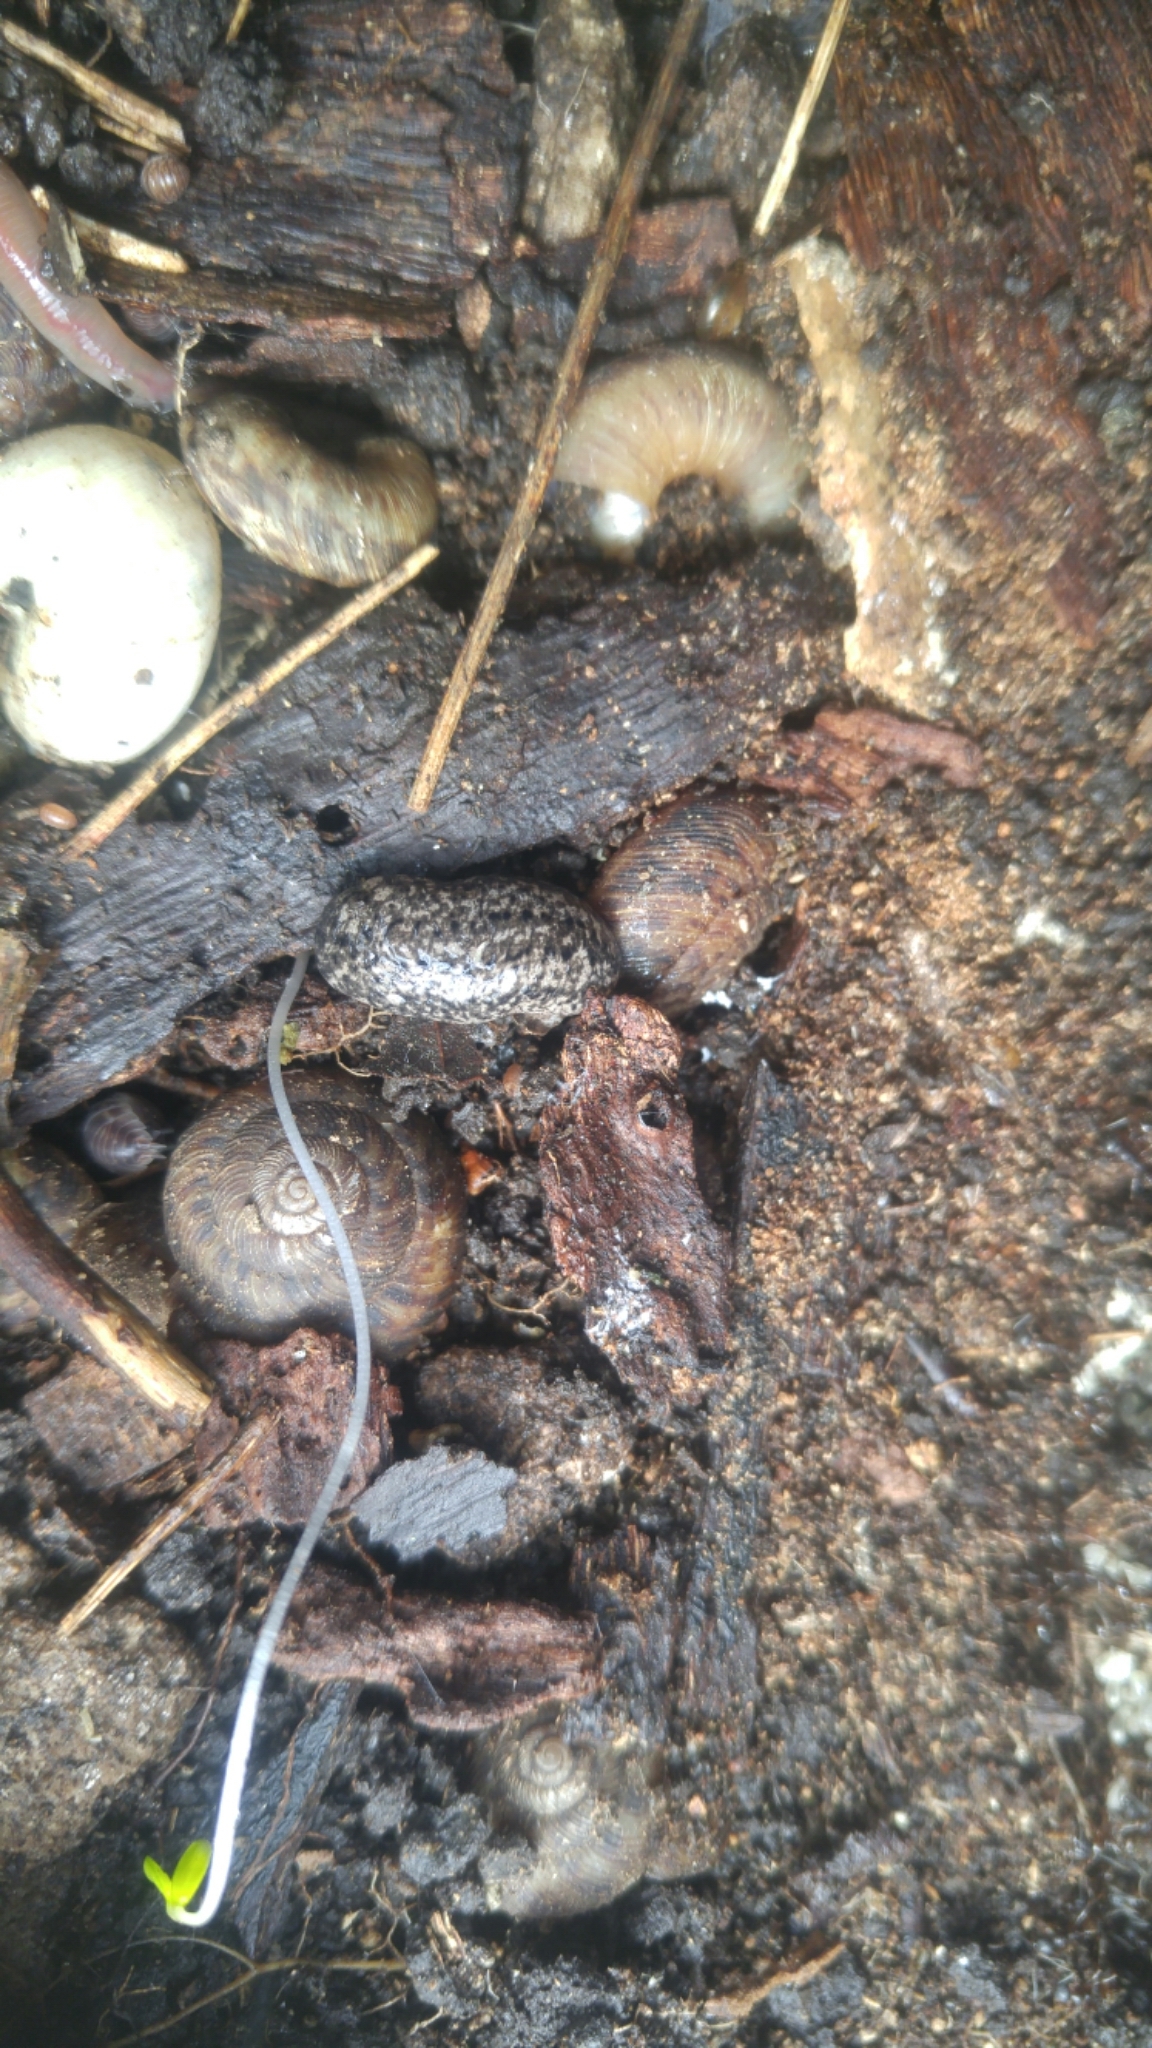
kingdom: Animalia
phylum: Mollusca
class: Gastropoda
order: Stylommatophora
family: Discidae
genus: Anguispira
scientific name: Anguispira alternata
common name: Flamed tigersnail
